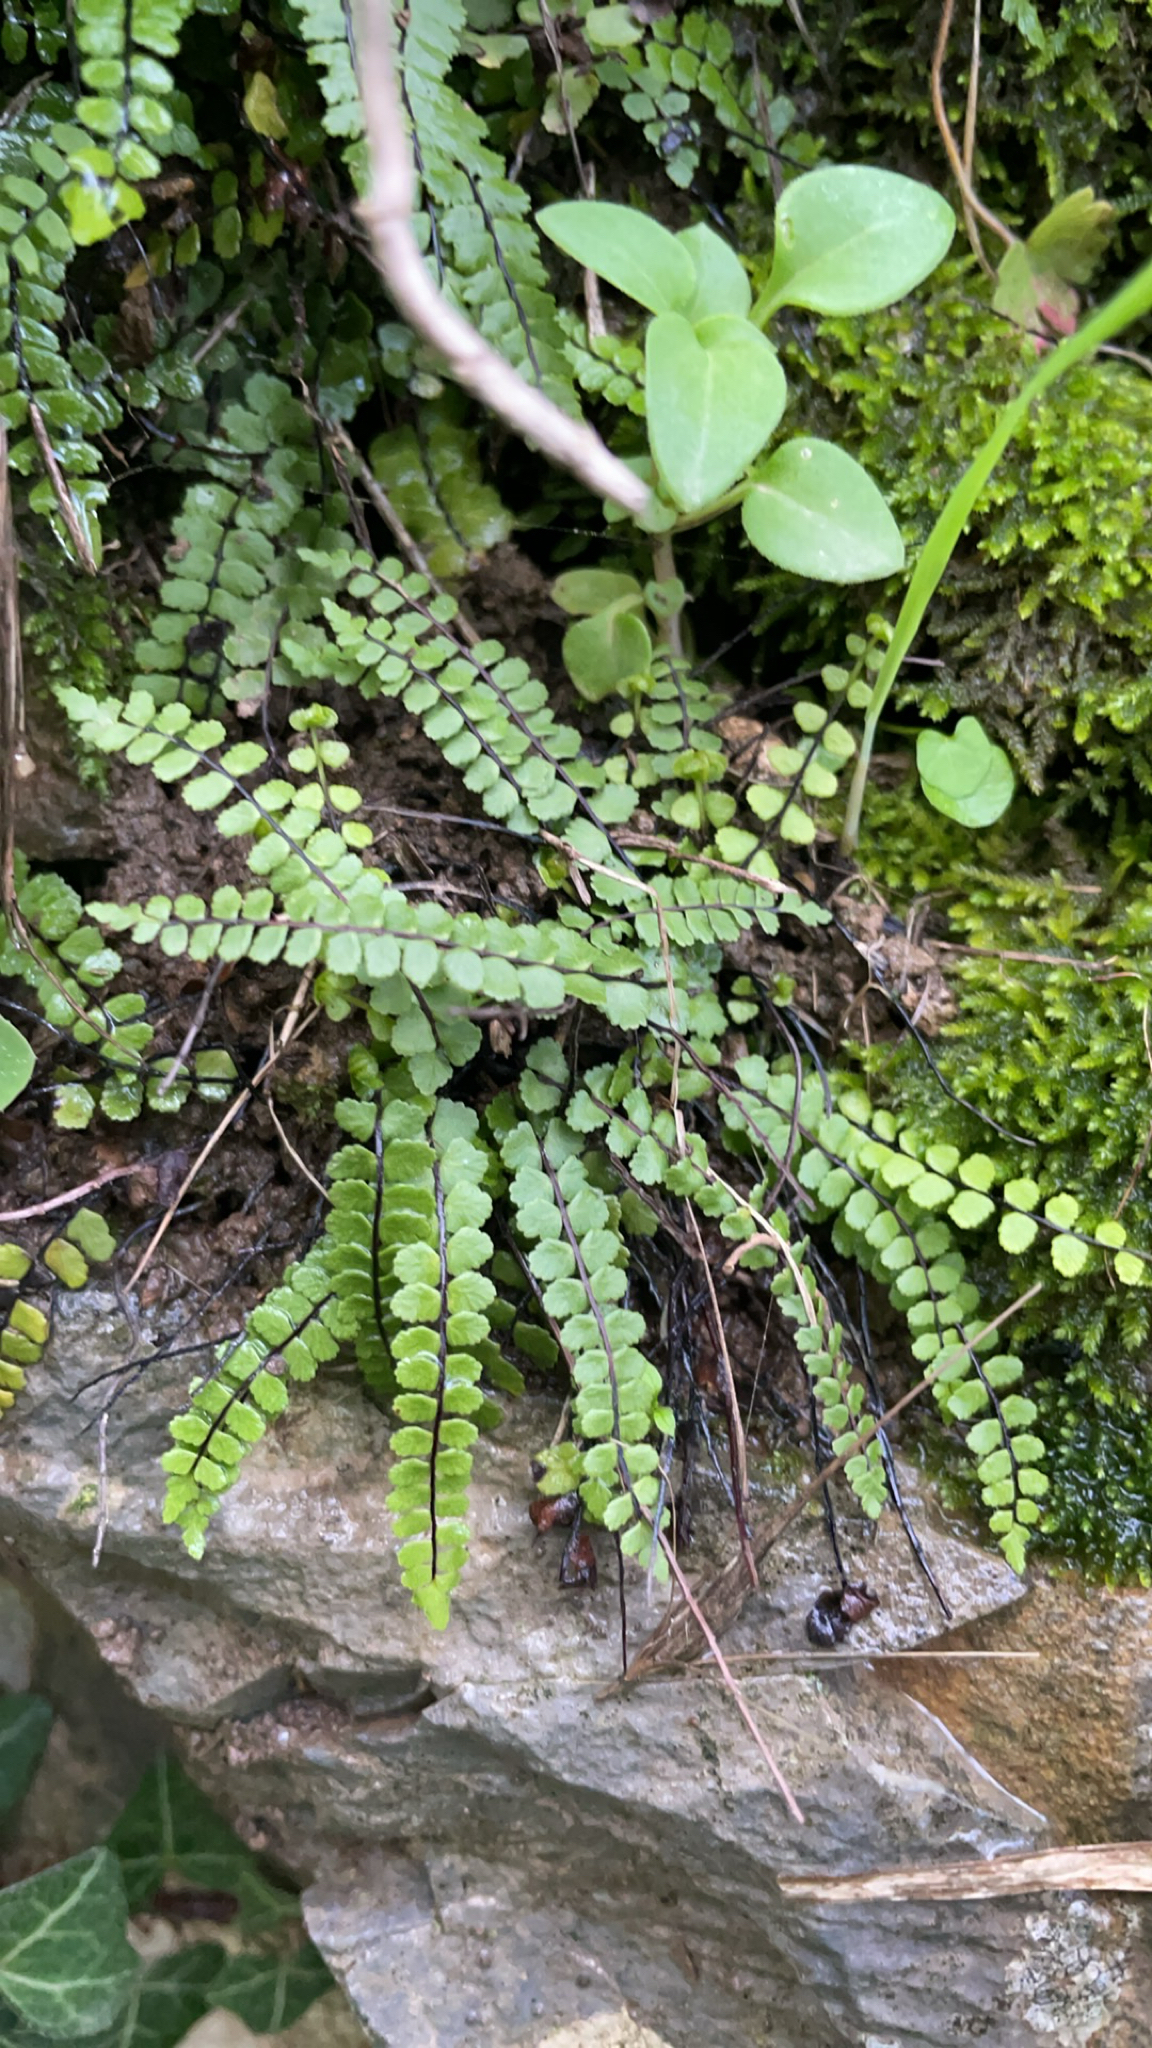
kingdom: Plantae
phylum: Tracheophyta
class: Polypodiopsida
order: Polypodiales
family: Aspleniaceae
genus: Asplenium
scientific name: Asplenium trichomanes
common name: Maidenhair spleenwort
